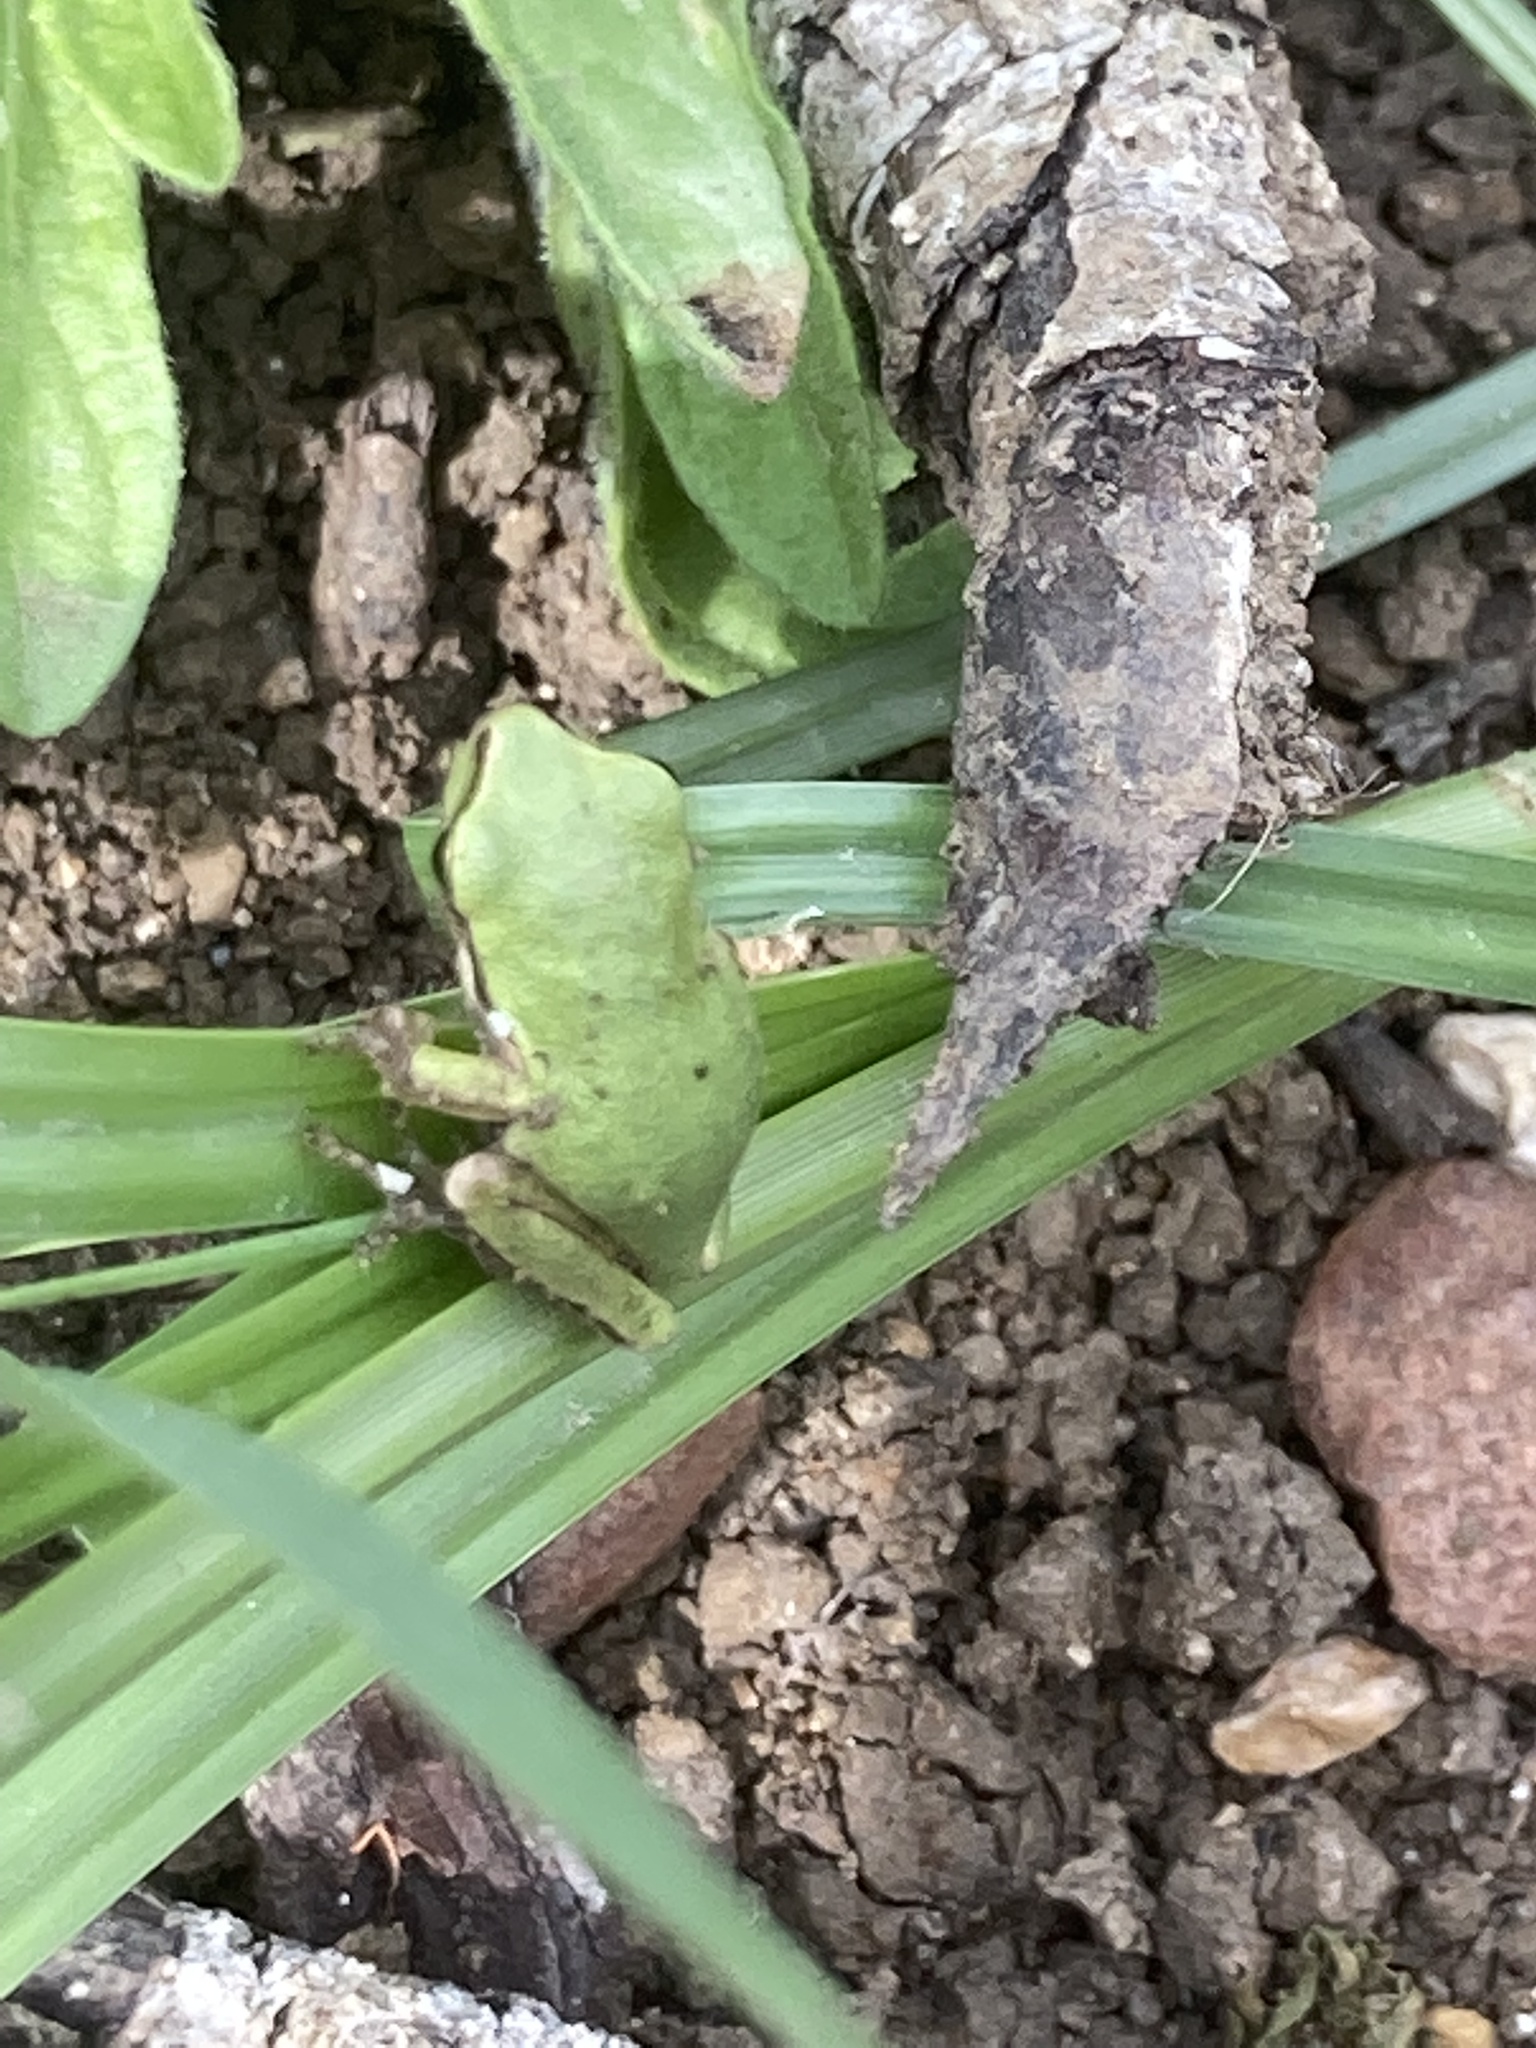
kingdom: Animalia
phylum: Chordata
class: Amphibia
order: Anura
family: Hylidae
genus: Hyla
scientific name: Hyla meridionalis
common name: Stripeless tree frog
